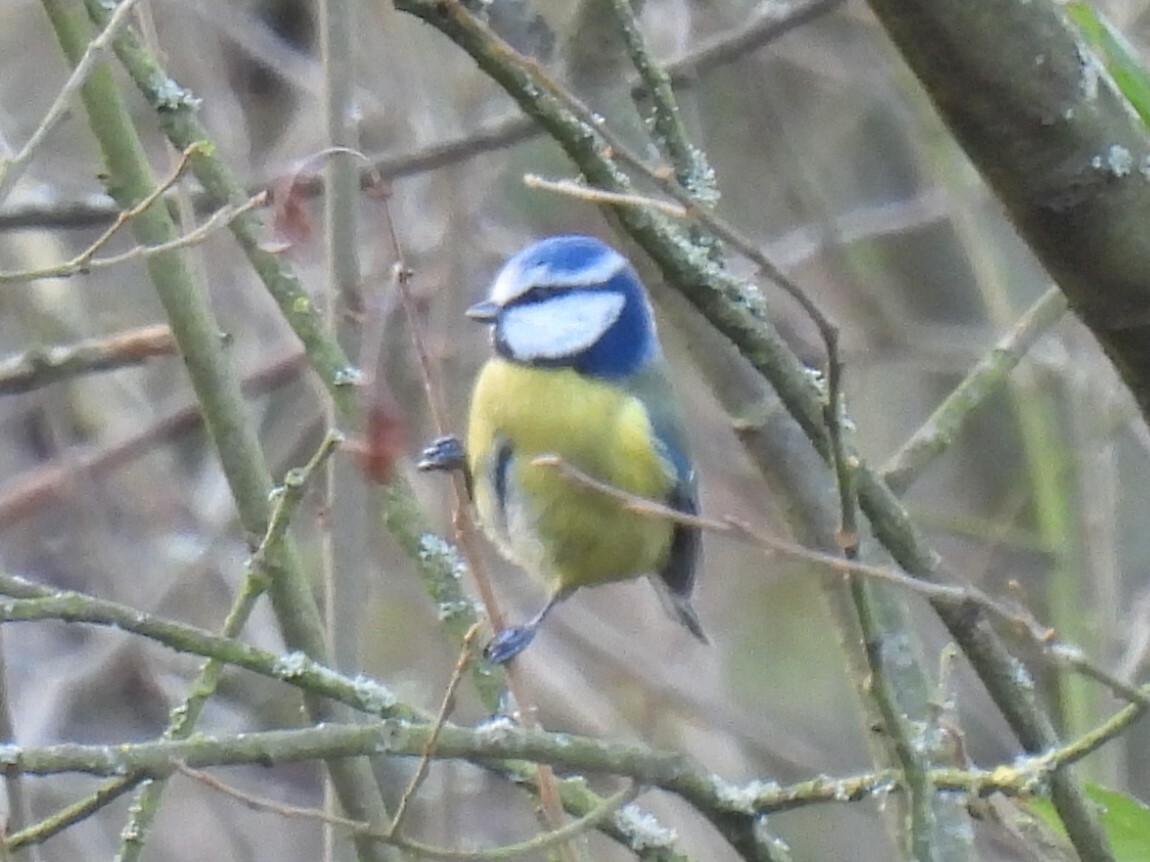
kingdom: Animalia
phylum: Chordata
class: Aves
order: Passeriformes
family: Paridae
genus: Cyanistes
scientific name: Cyanistes caeruleus
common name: Eurasian blue tit
